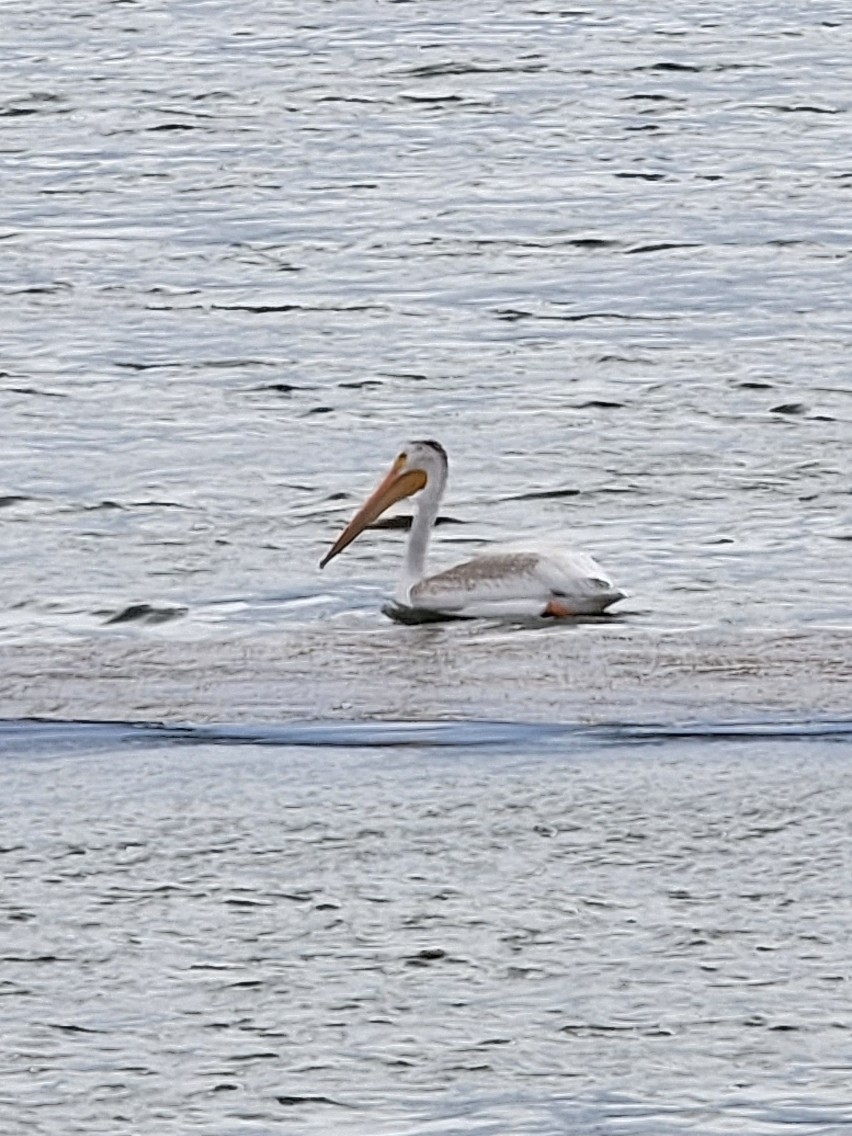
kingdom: Animalia
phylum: Chordata
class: Aves
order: Pelecaniformes
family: Pelecanidae
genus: Pelecanus
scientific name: Pelecanus erythrorhynchos
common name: American white pelican
